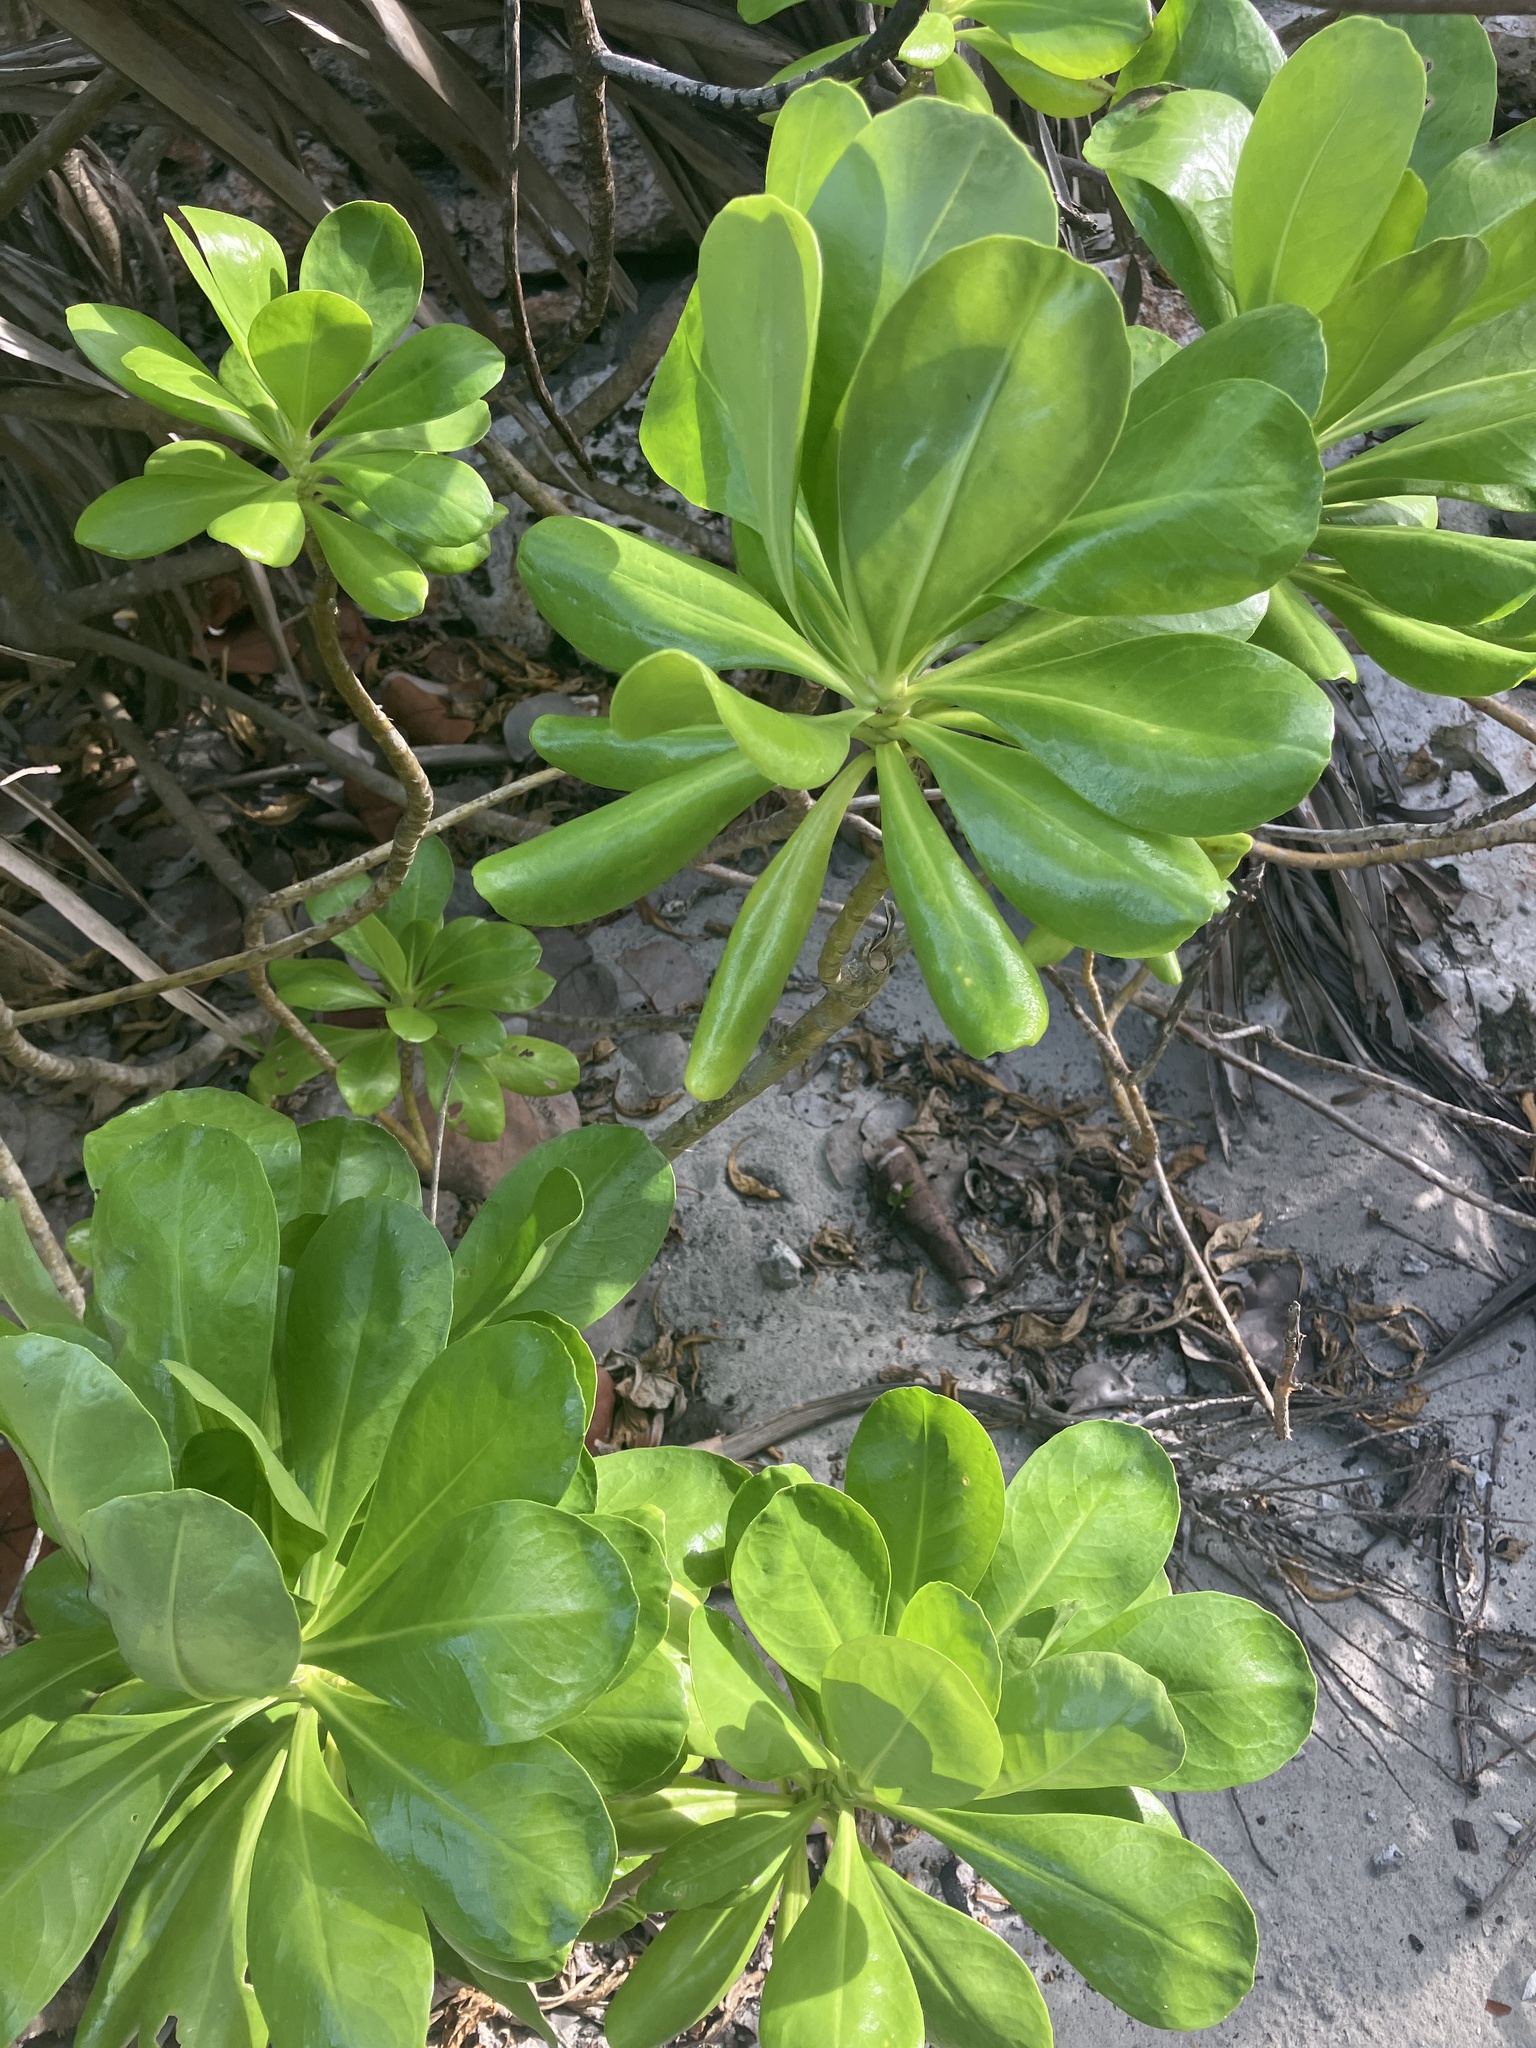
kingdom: Plantae
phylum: Tracheophyta
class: Magnoliopsida
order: Asterales
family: Goodeniaceae
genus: Scaevola
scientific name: Scaevola taccada
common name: Sea lettucetree
